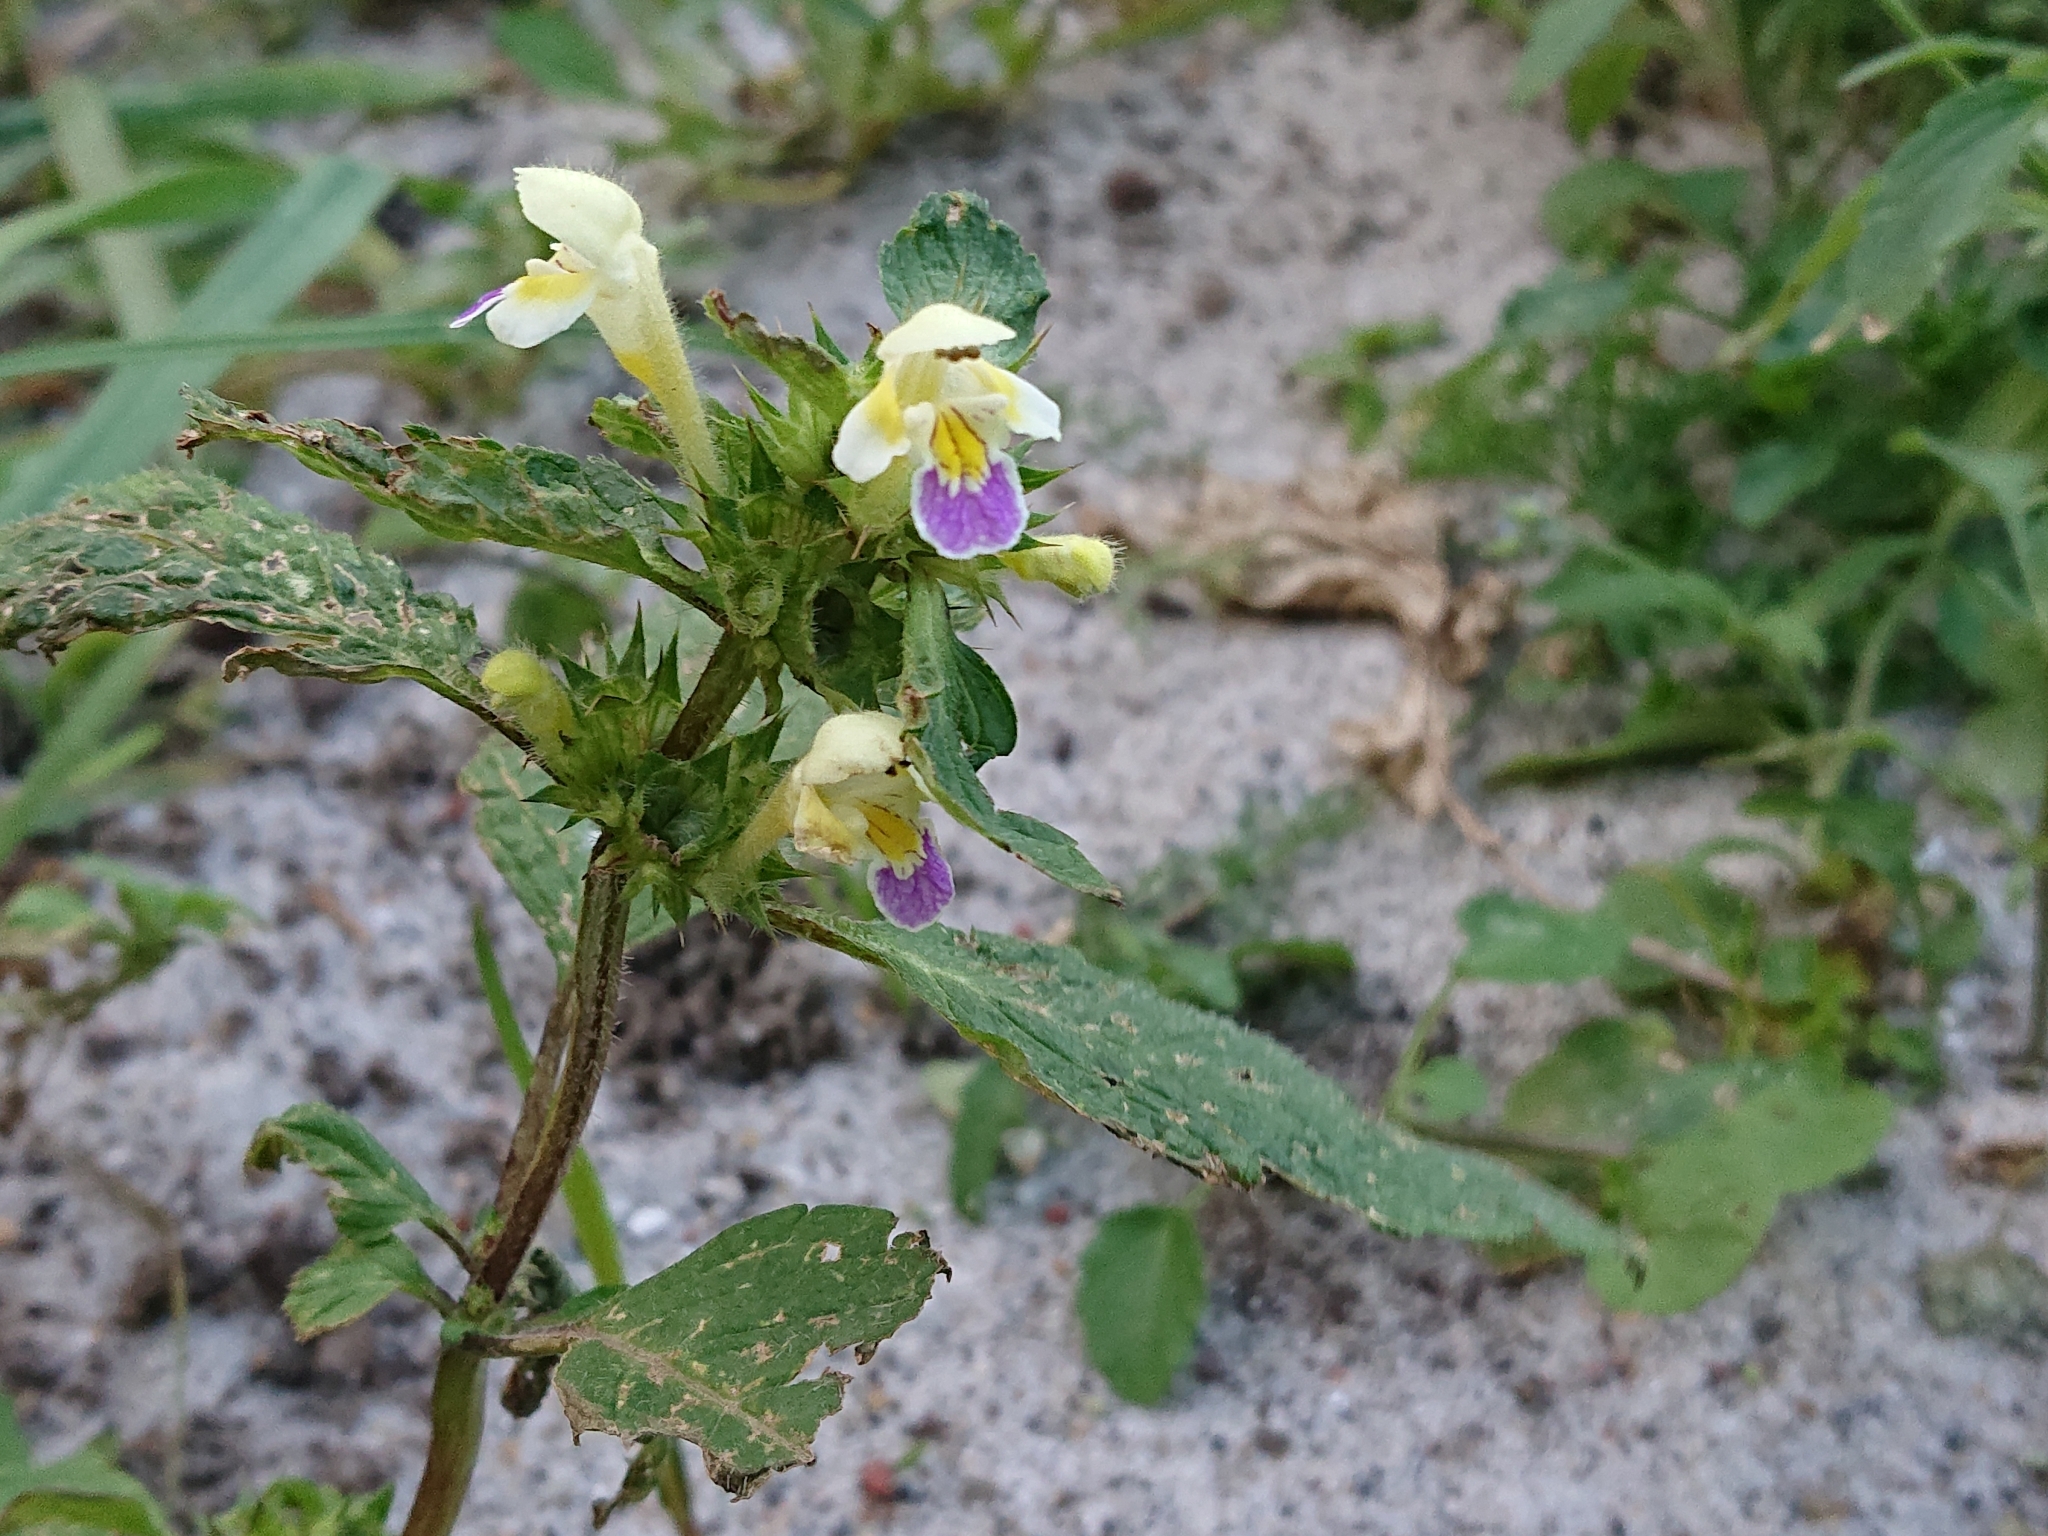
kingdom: Plantae
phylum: Tracheophyta
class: Magnoliopsida
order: Lamiales
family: Lamiaceae
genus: Galeopsis
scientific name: Galeopsis speciosa
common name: Large-flowered hemp-nettle
